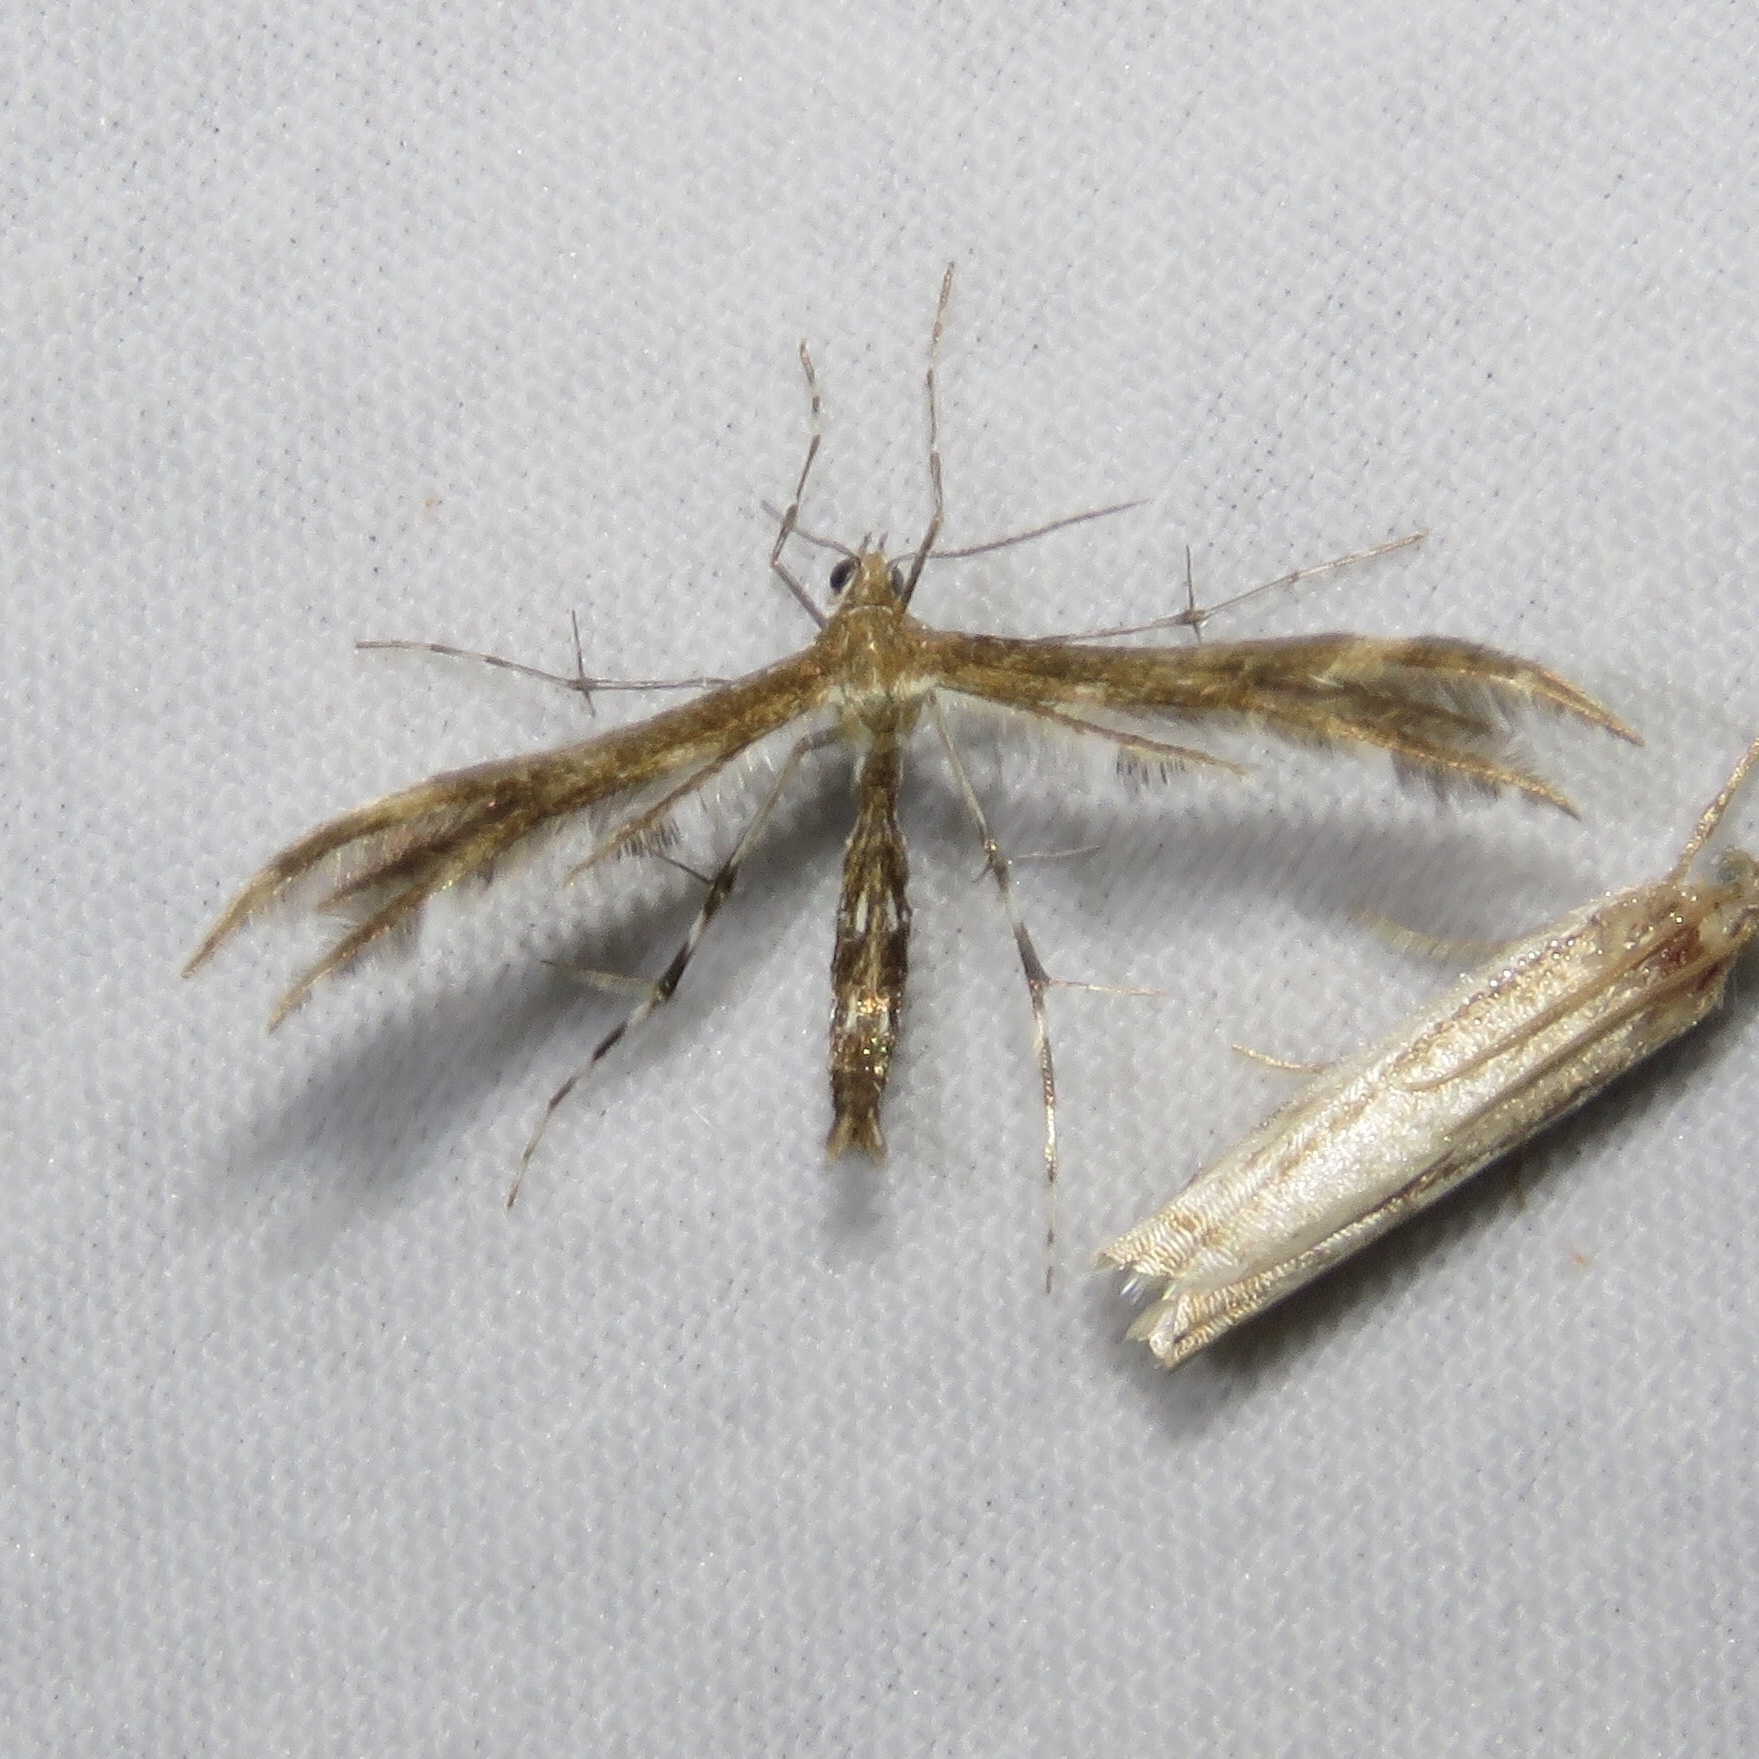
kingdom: Animalia
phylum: Arthropoda
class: Insecta
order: Lepidoptera
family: Pterophoridae
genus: Dejongia
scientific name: Dejongia lobidactylus
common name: Lobed plume moth
